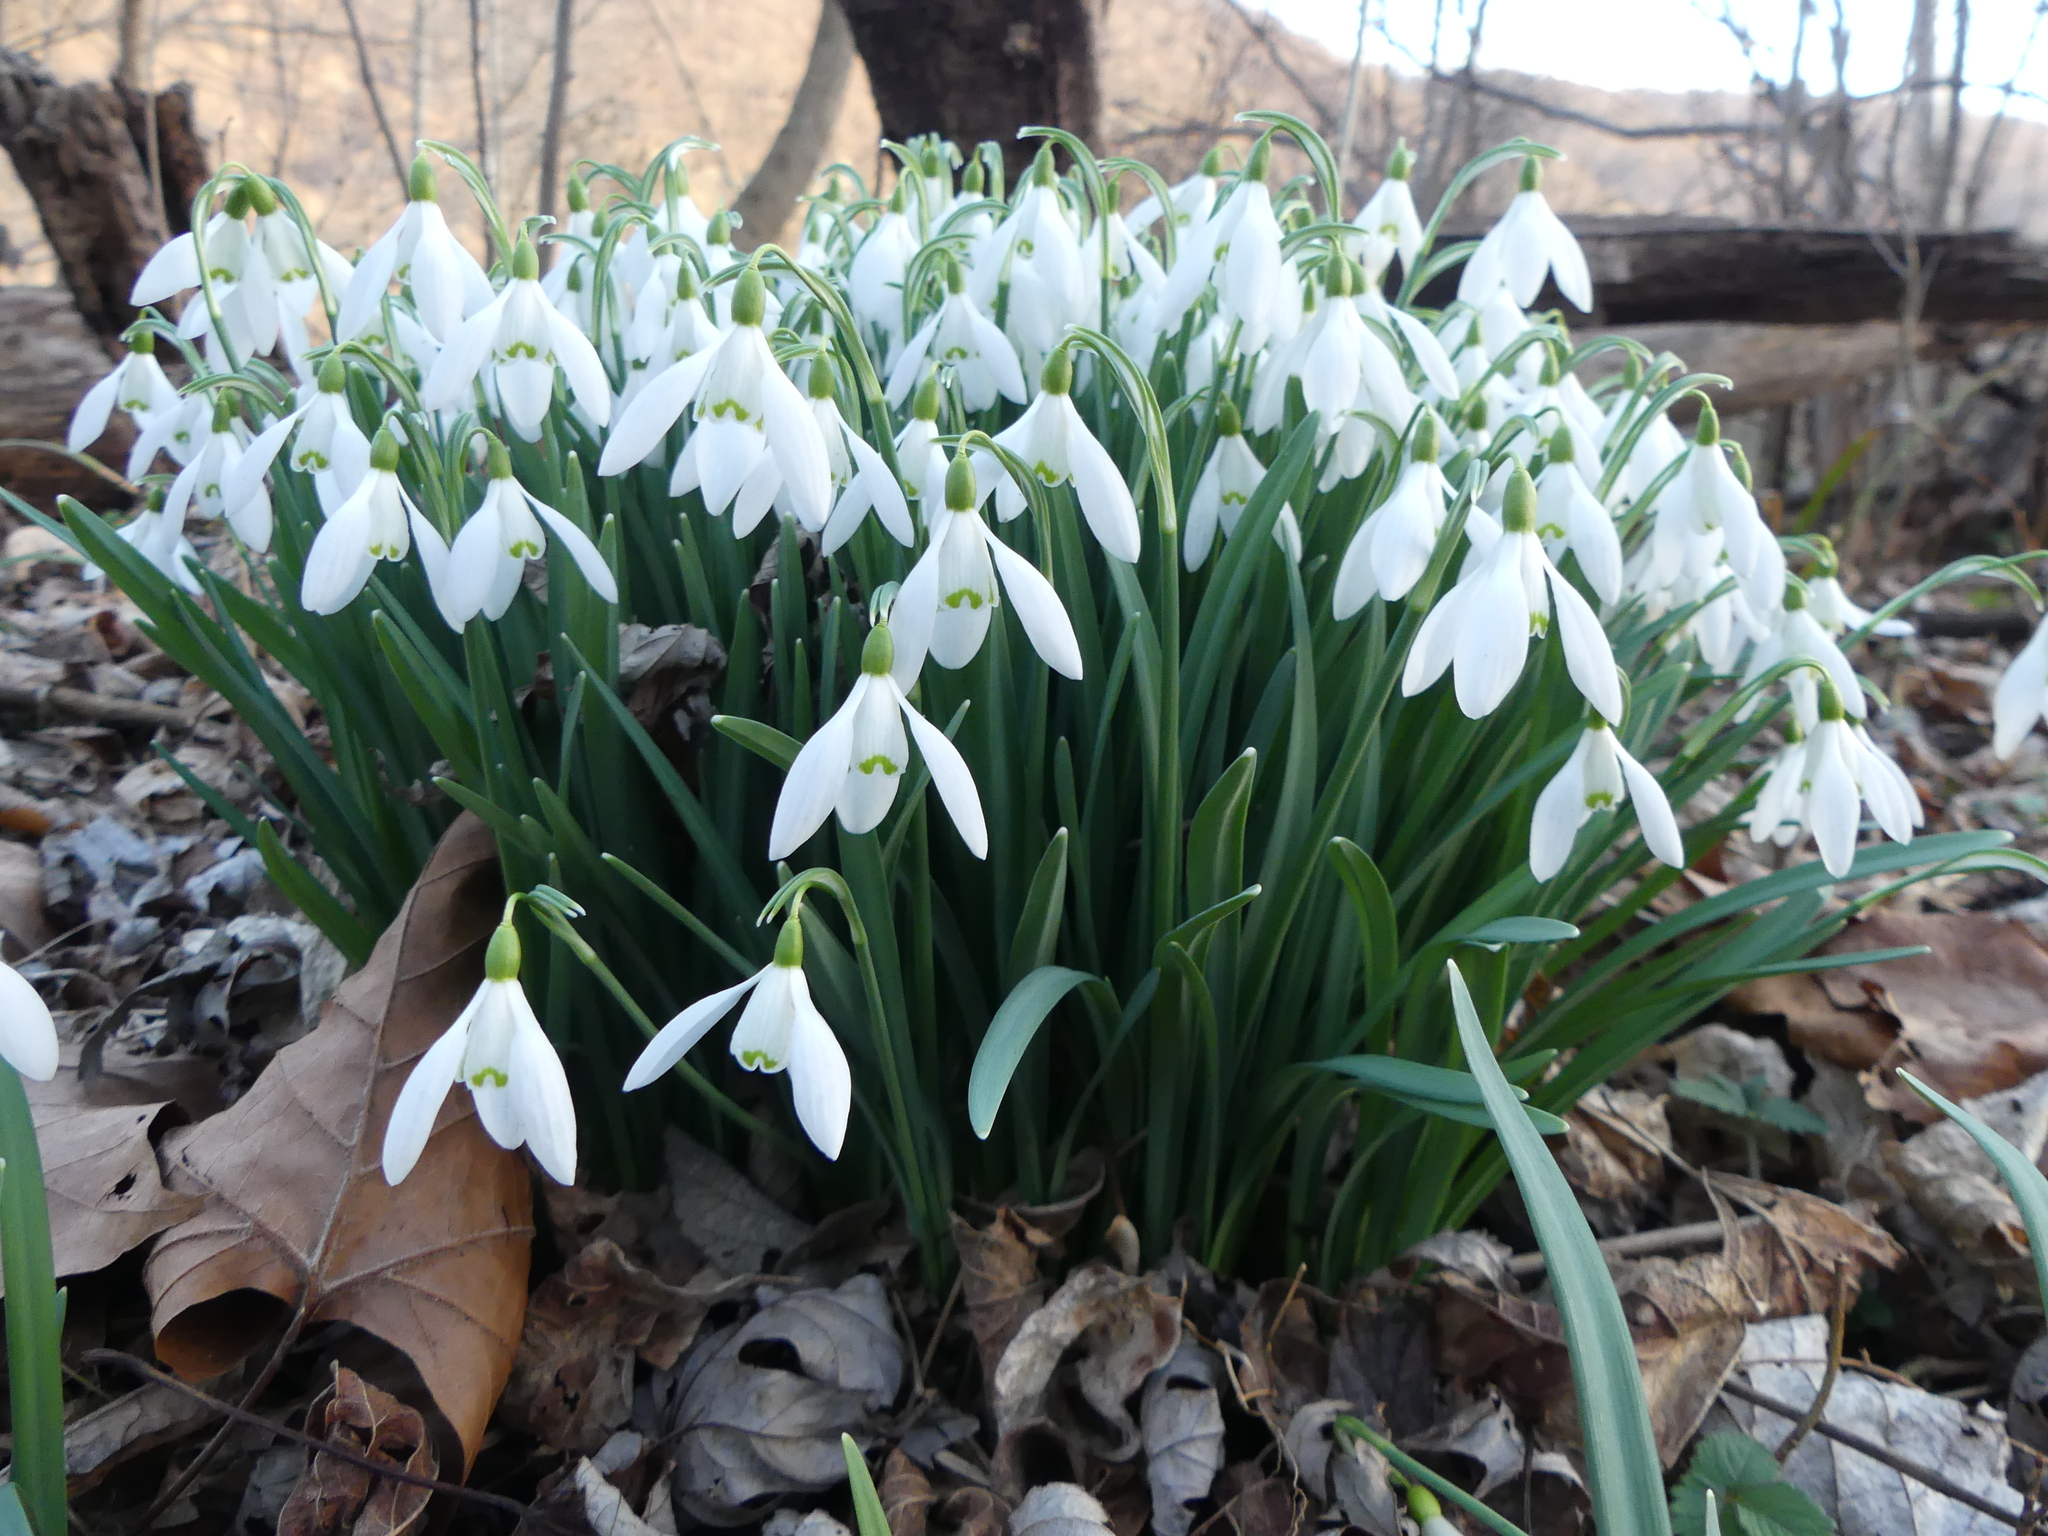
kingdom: Plantae
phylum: Tracheophyta
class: Liliopsida
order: Asparagales
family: Amaryllidaceae
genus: Galanthus
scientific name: Galanthus nivalis
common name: Snowdrop
